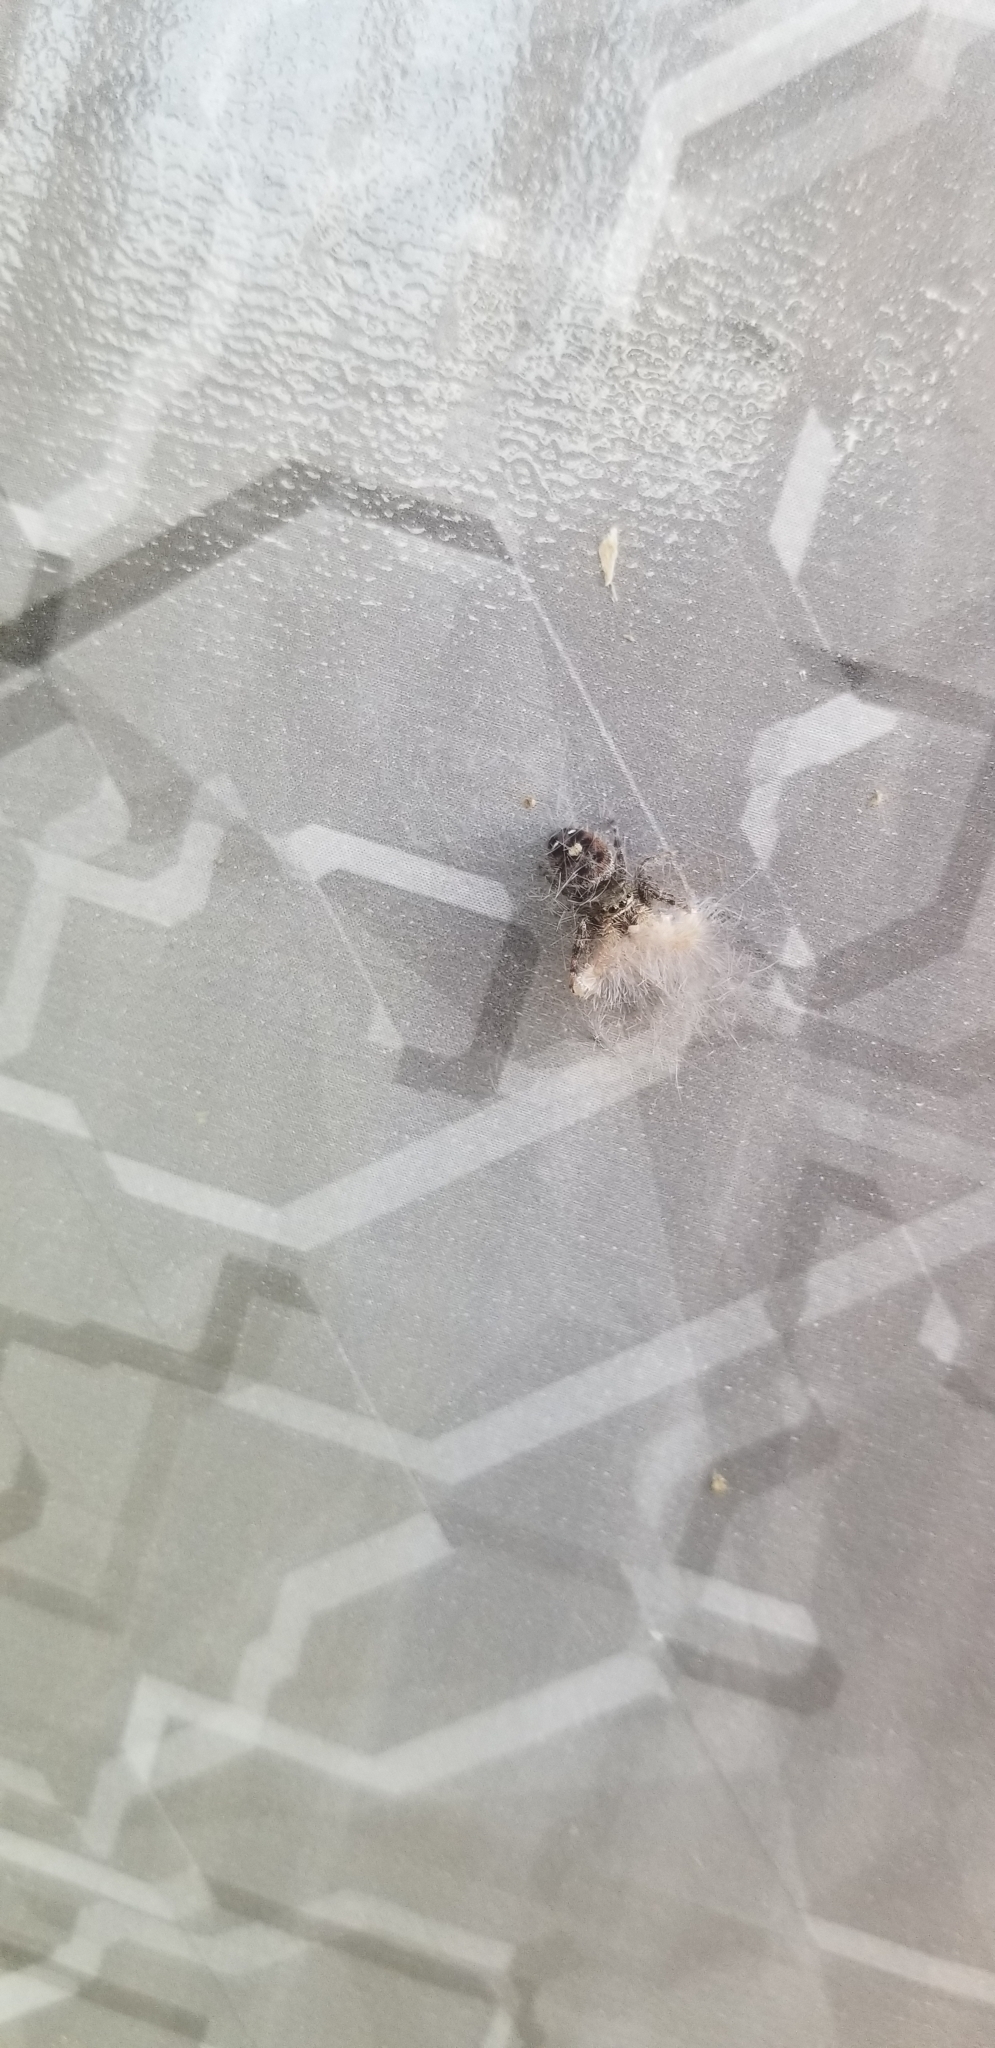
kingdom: Animalia
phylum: Arthropoda
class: Arachnida
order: Araneae
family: Salticidae
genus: Phidippus
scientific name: Phidippus audax
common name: Bold jumper
